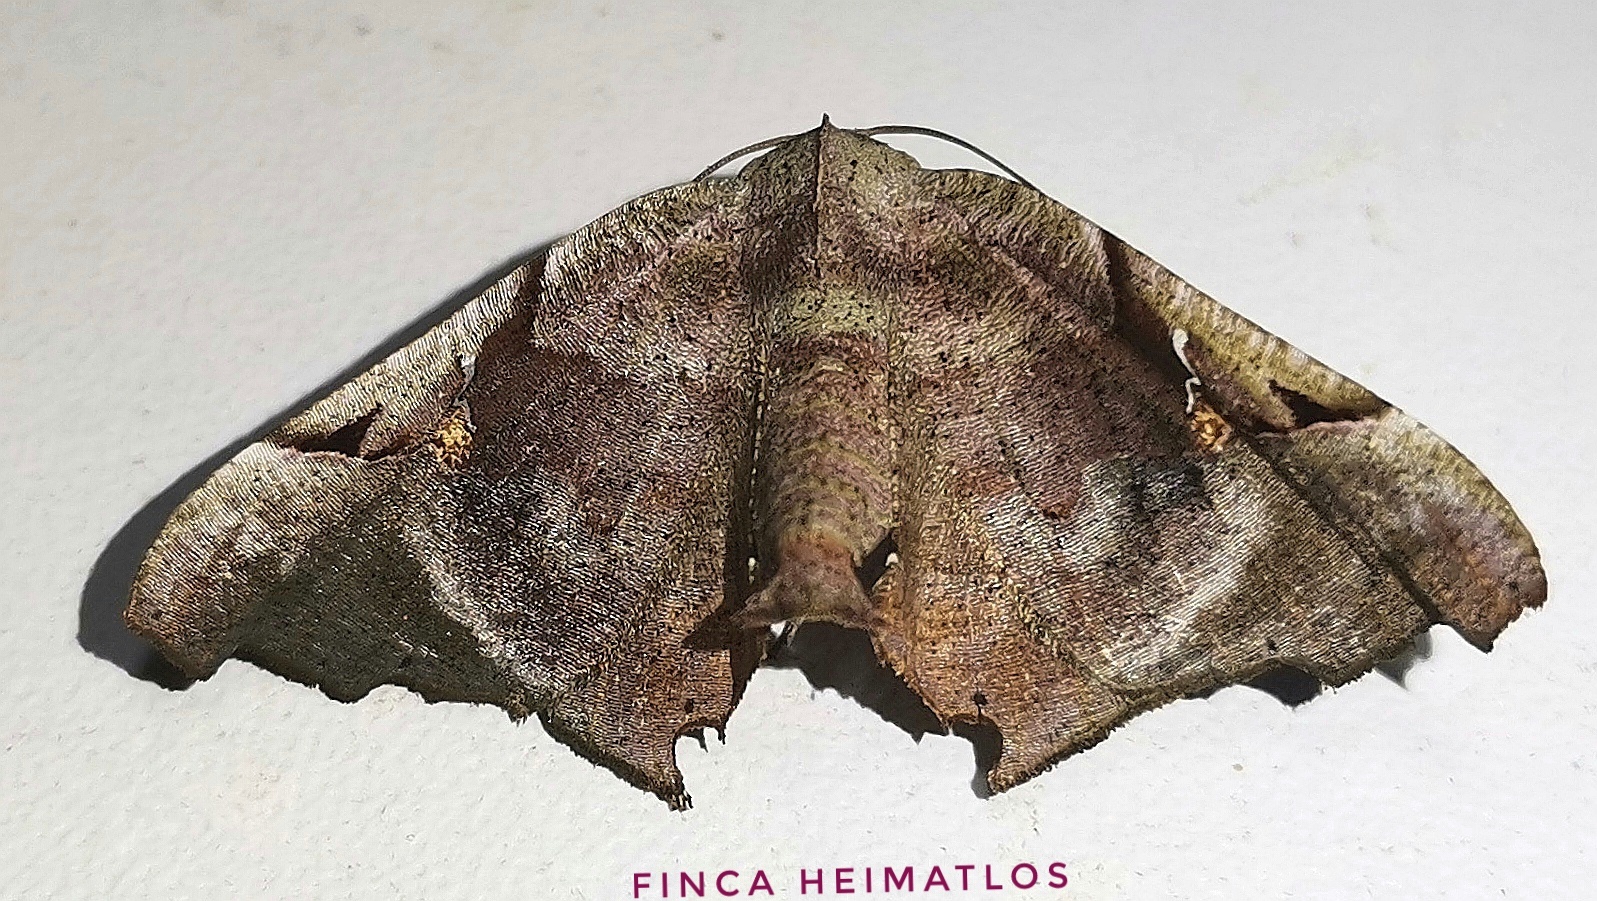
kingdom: Animalia
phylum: Arthropoda
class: Insecta
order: Lepidoptera
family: Geometridae
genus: Pero
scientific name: Pero incisa
